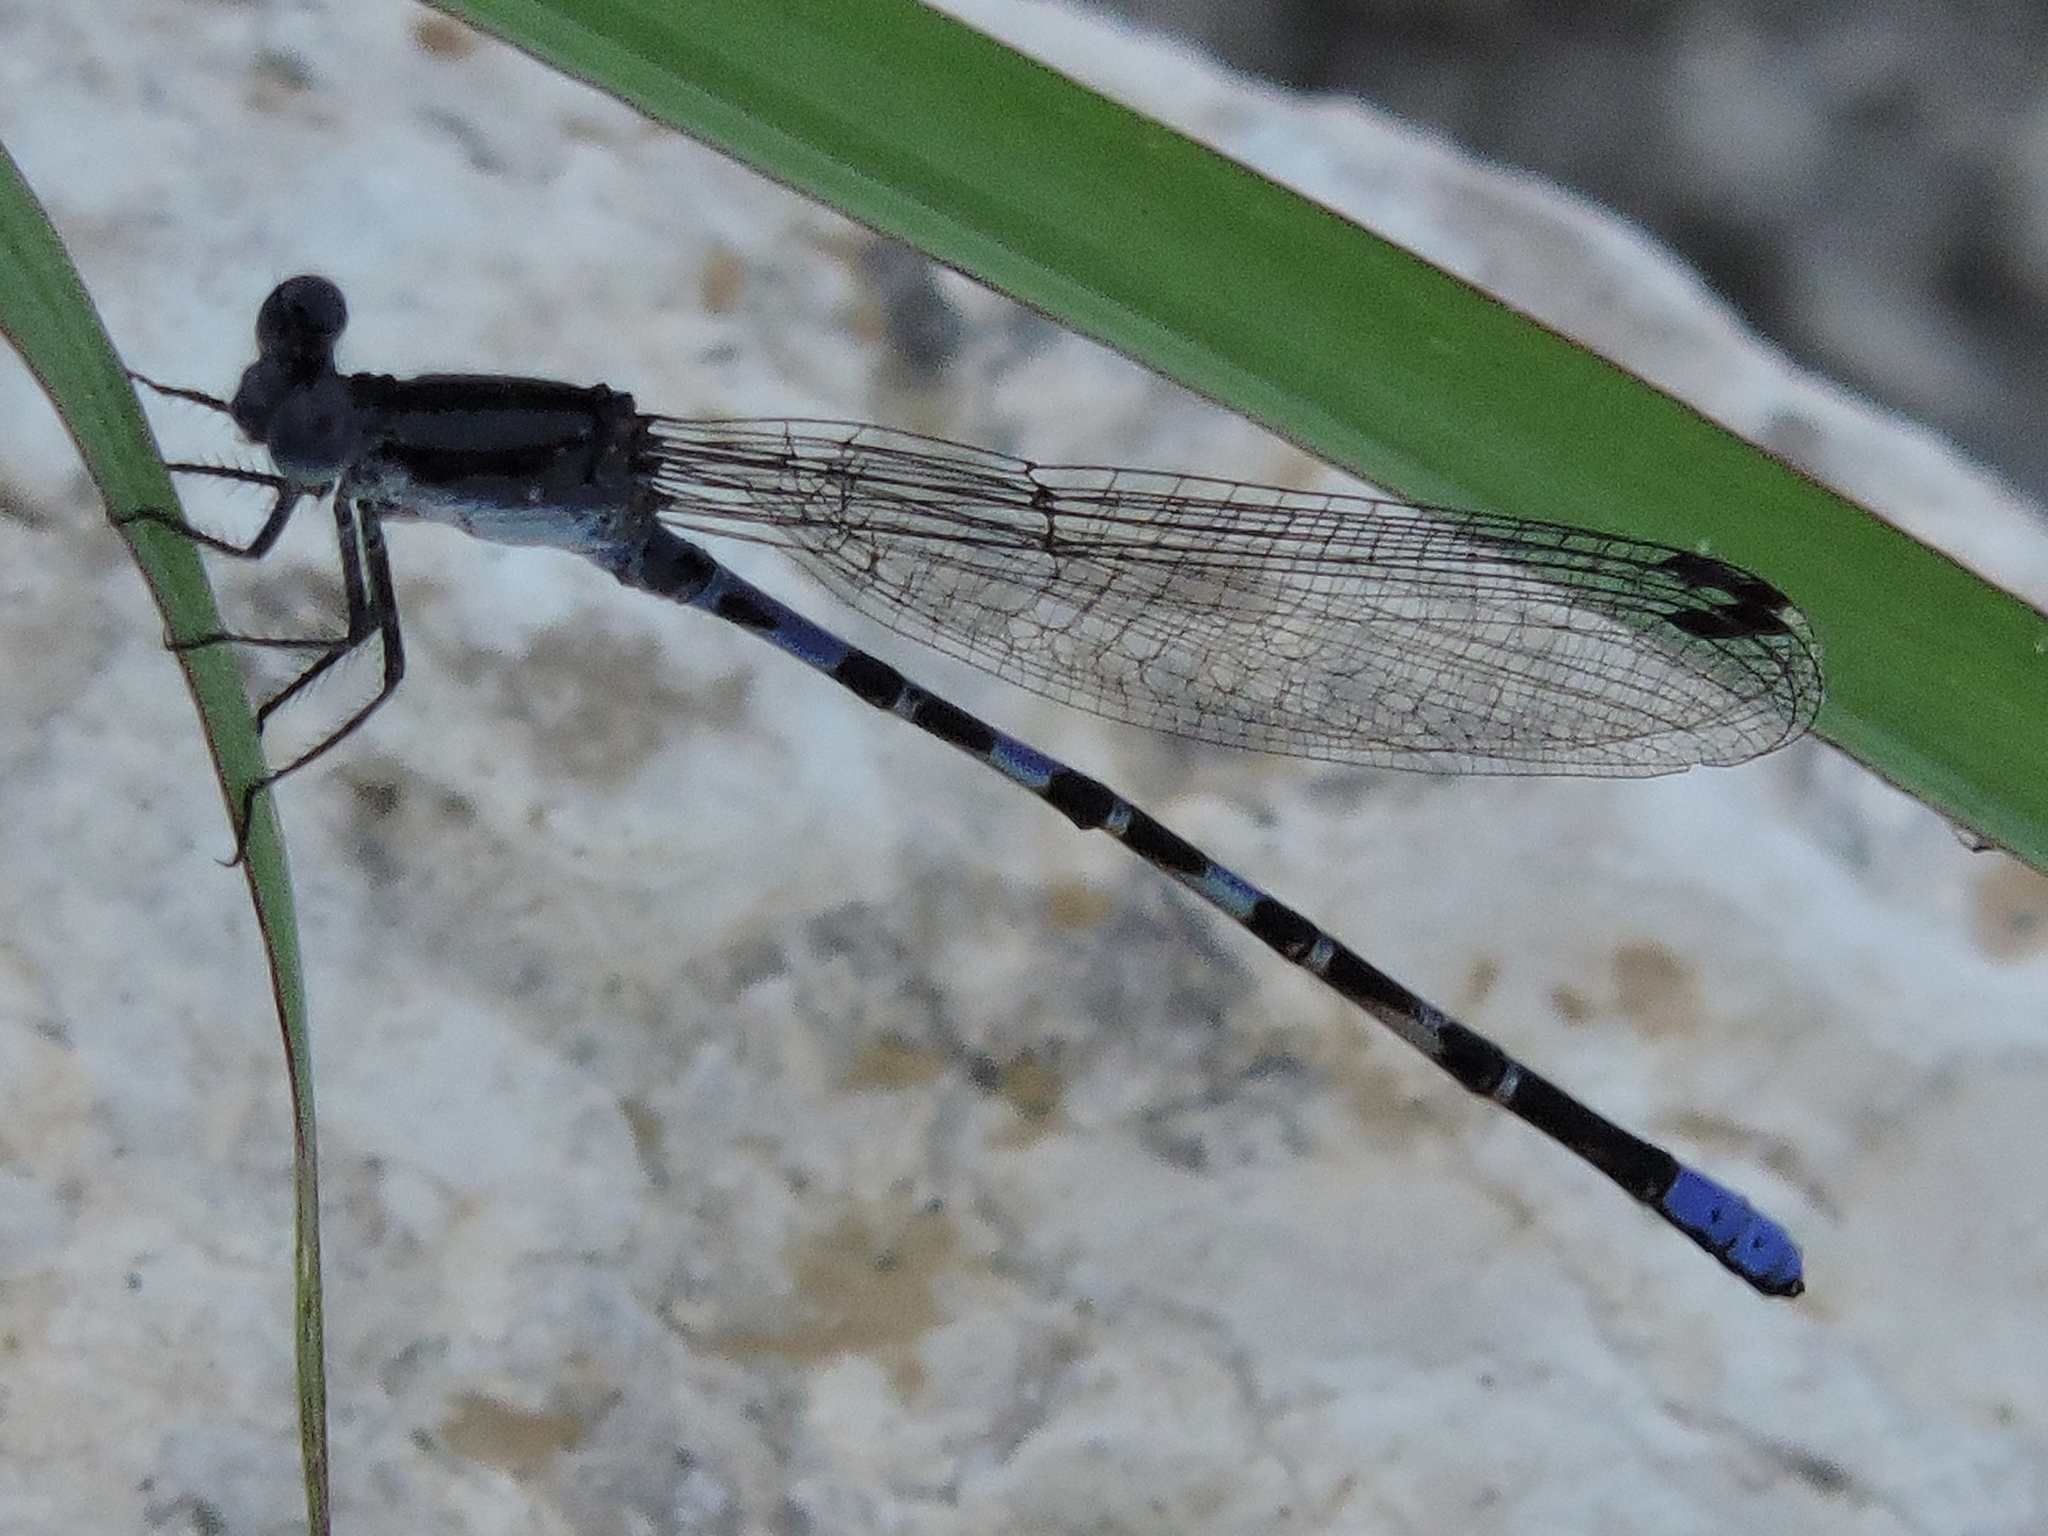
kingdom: Animalia
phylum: Arthropoda
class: Insecta
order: Odonata
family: Coenagrionidae
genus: Argia
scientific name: Argia immunda
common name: Kiowa dancer
